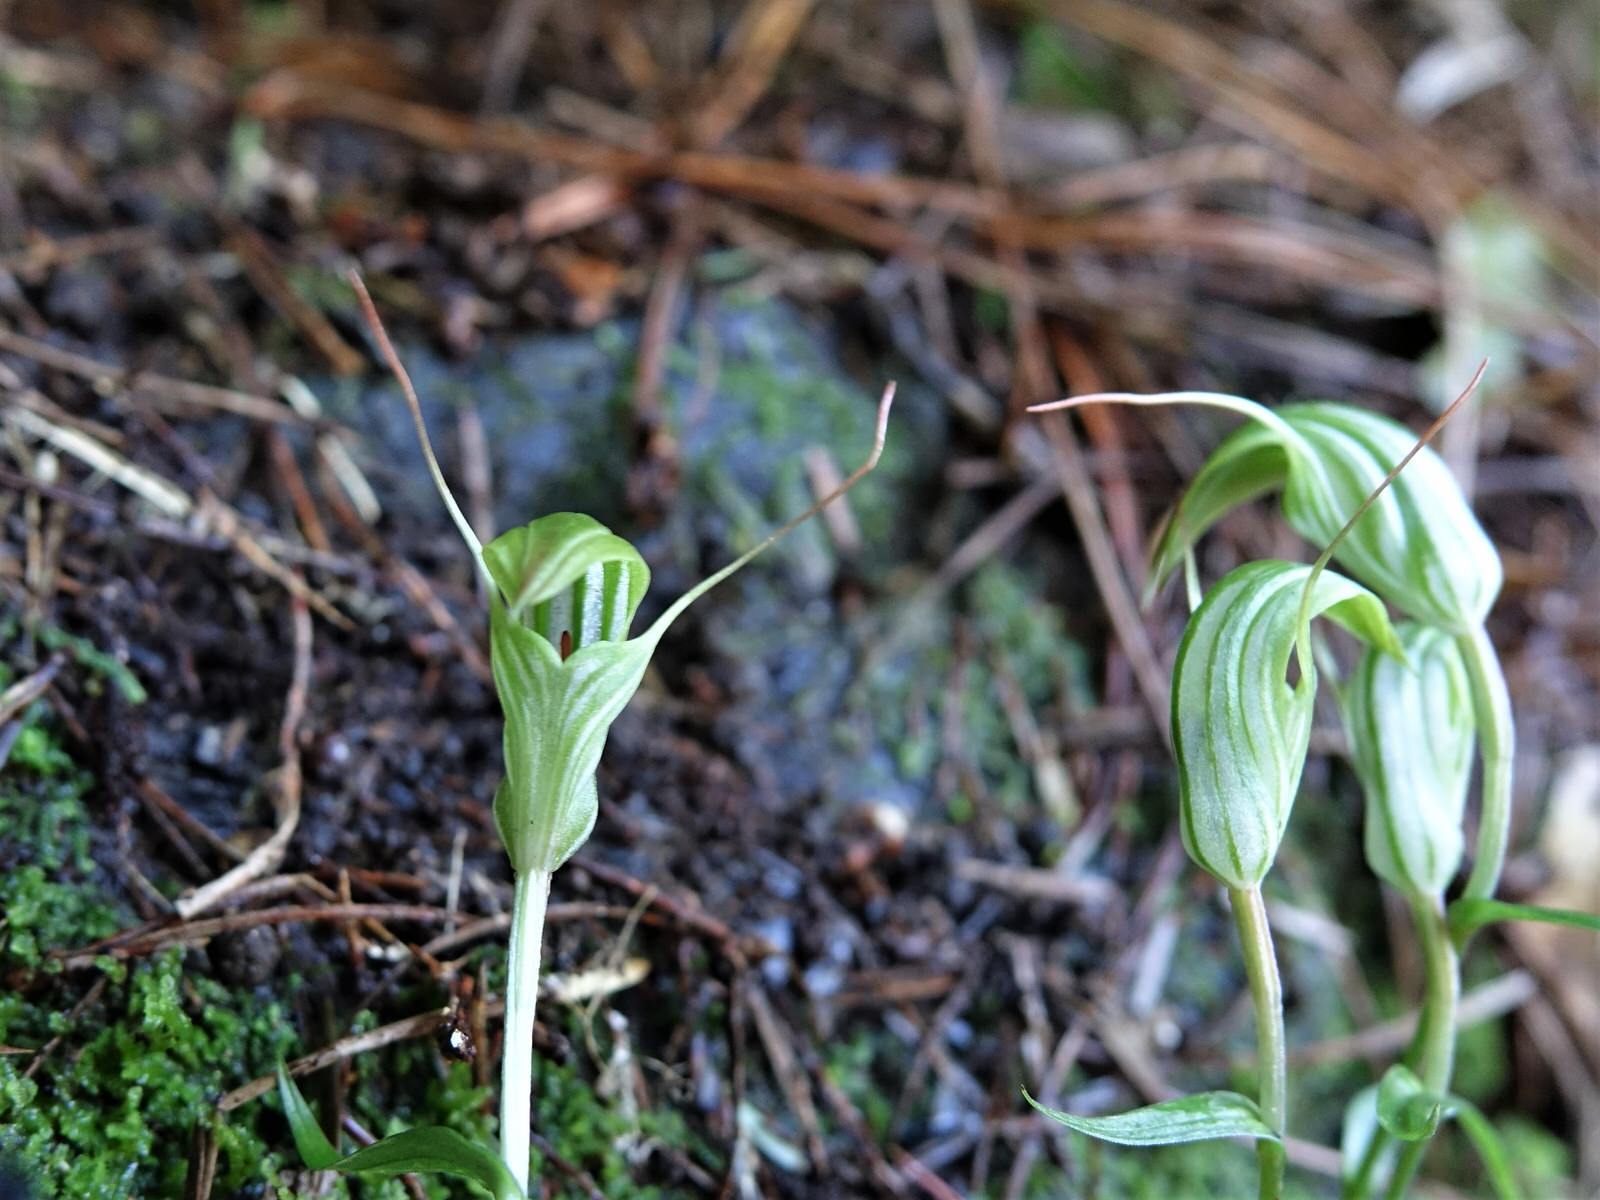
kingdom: Plantae
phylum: Tracheophyta
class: Liliopsida
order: Asparagales
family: Orchidaceae
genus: Pterostylis
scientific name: Pterostylis alobula
